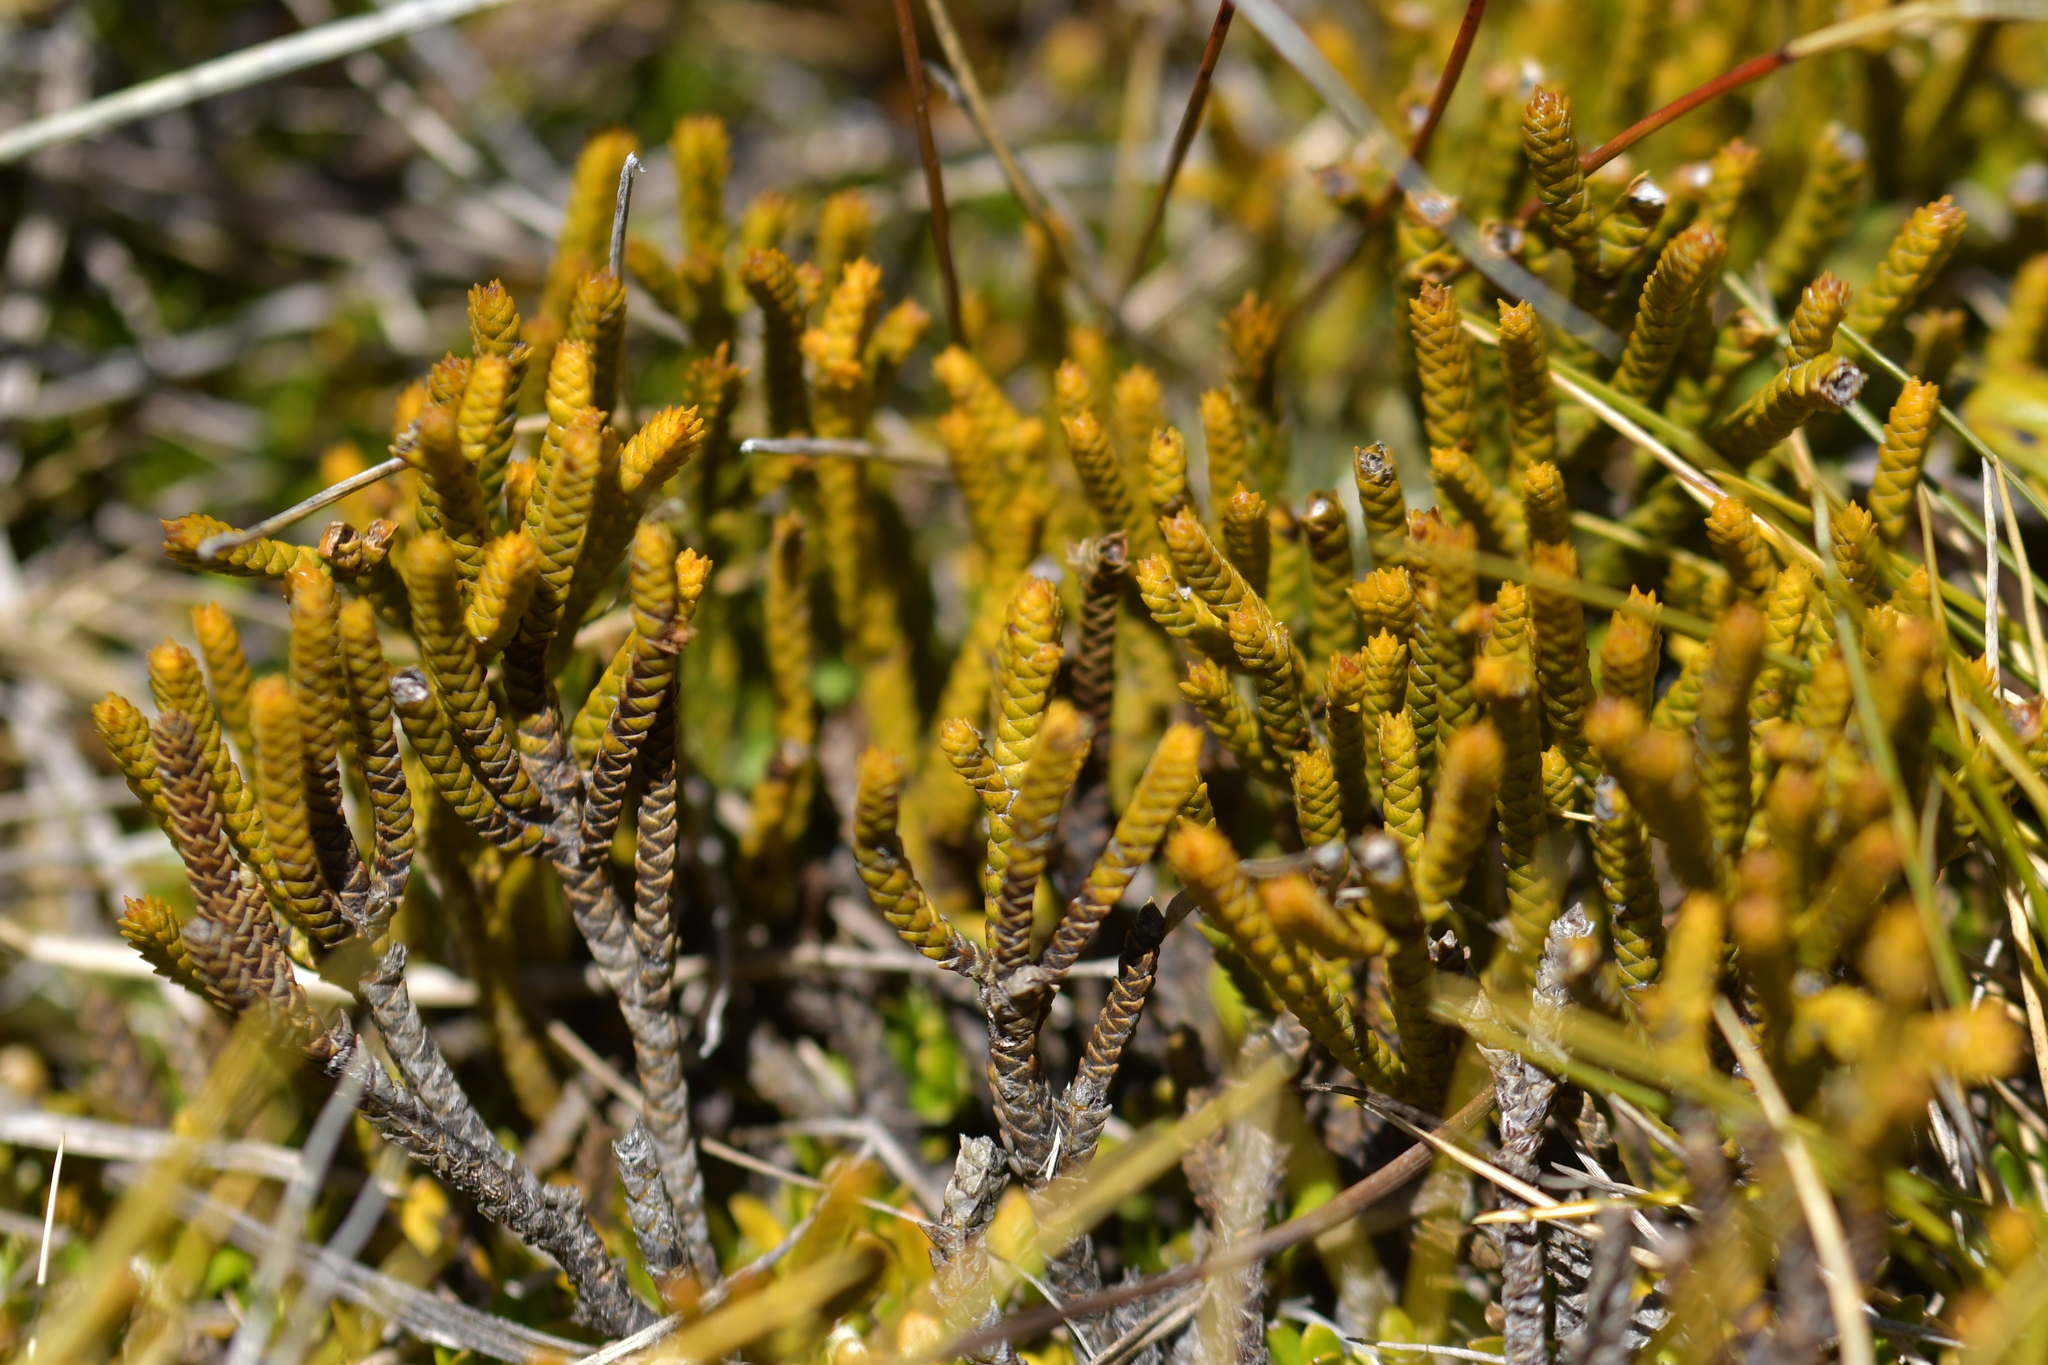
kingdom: Plantae
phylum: Tracheophyta
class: Magnoliopsida
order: Lamiales
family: Plantaginaceae
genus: Veronica
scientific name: Veronica lycopodioides
